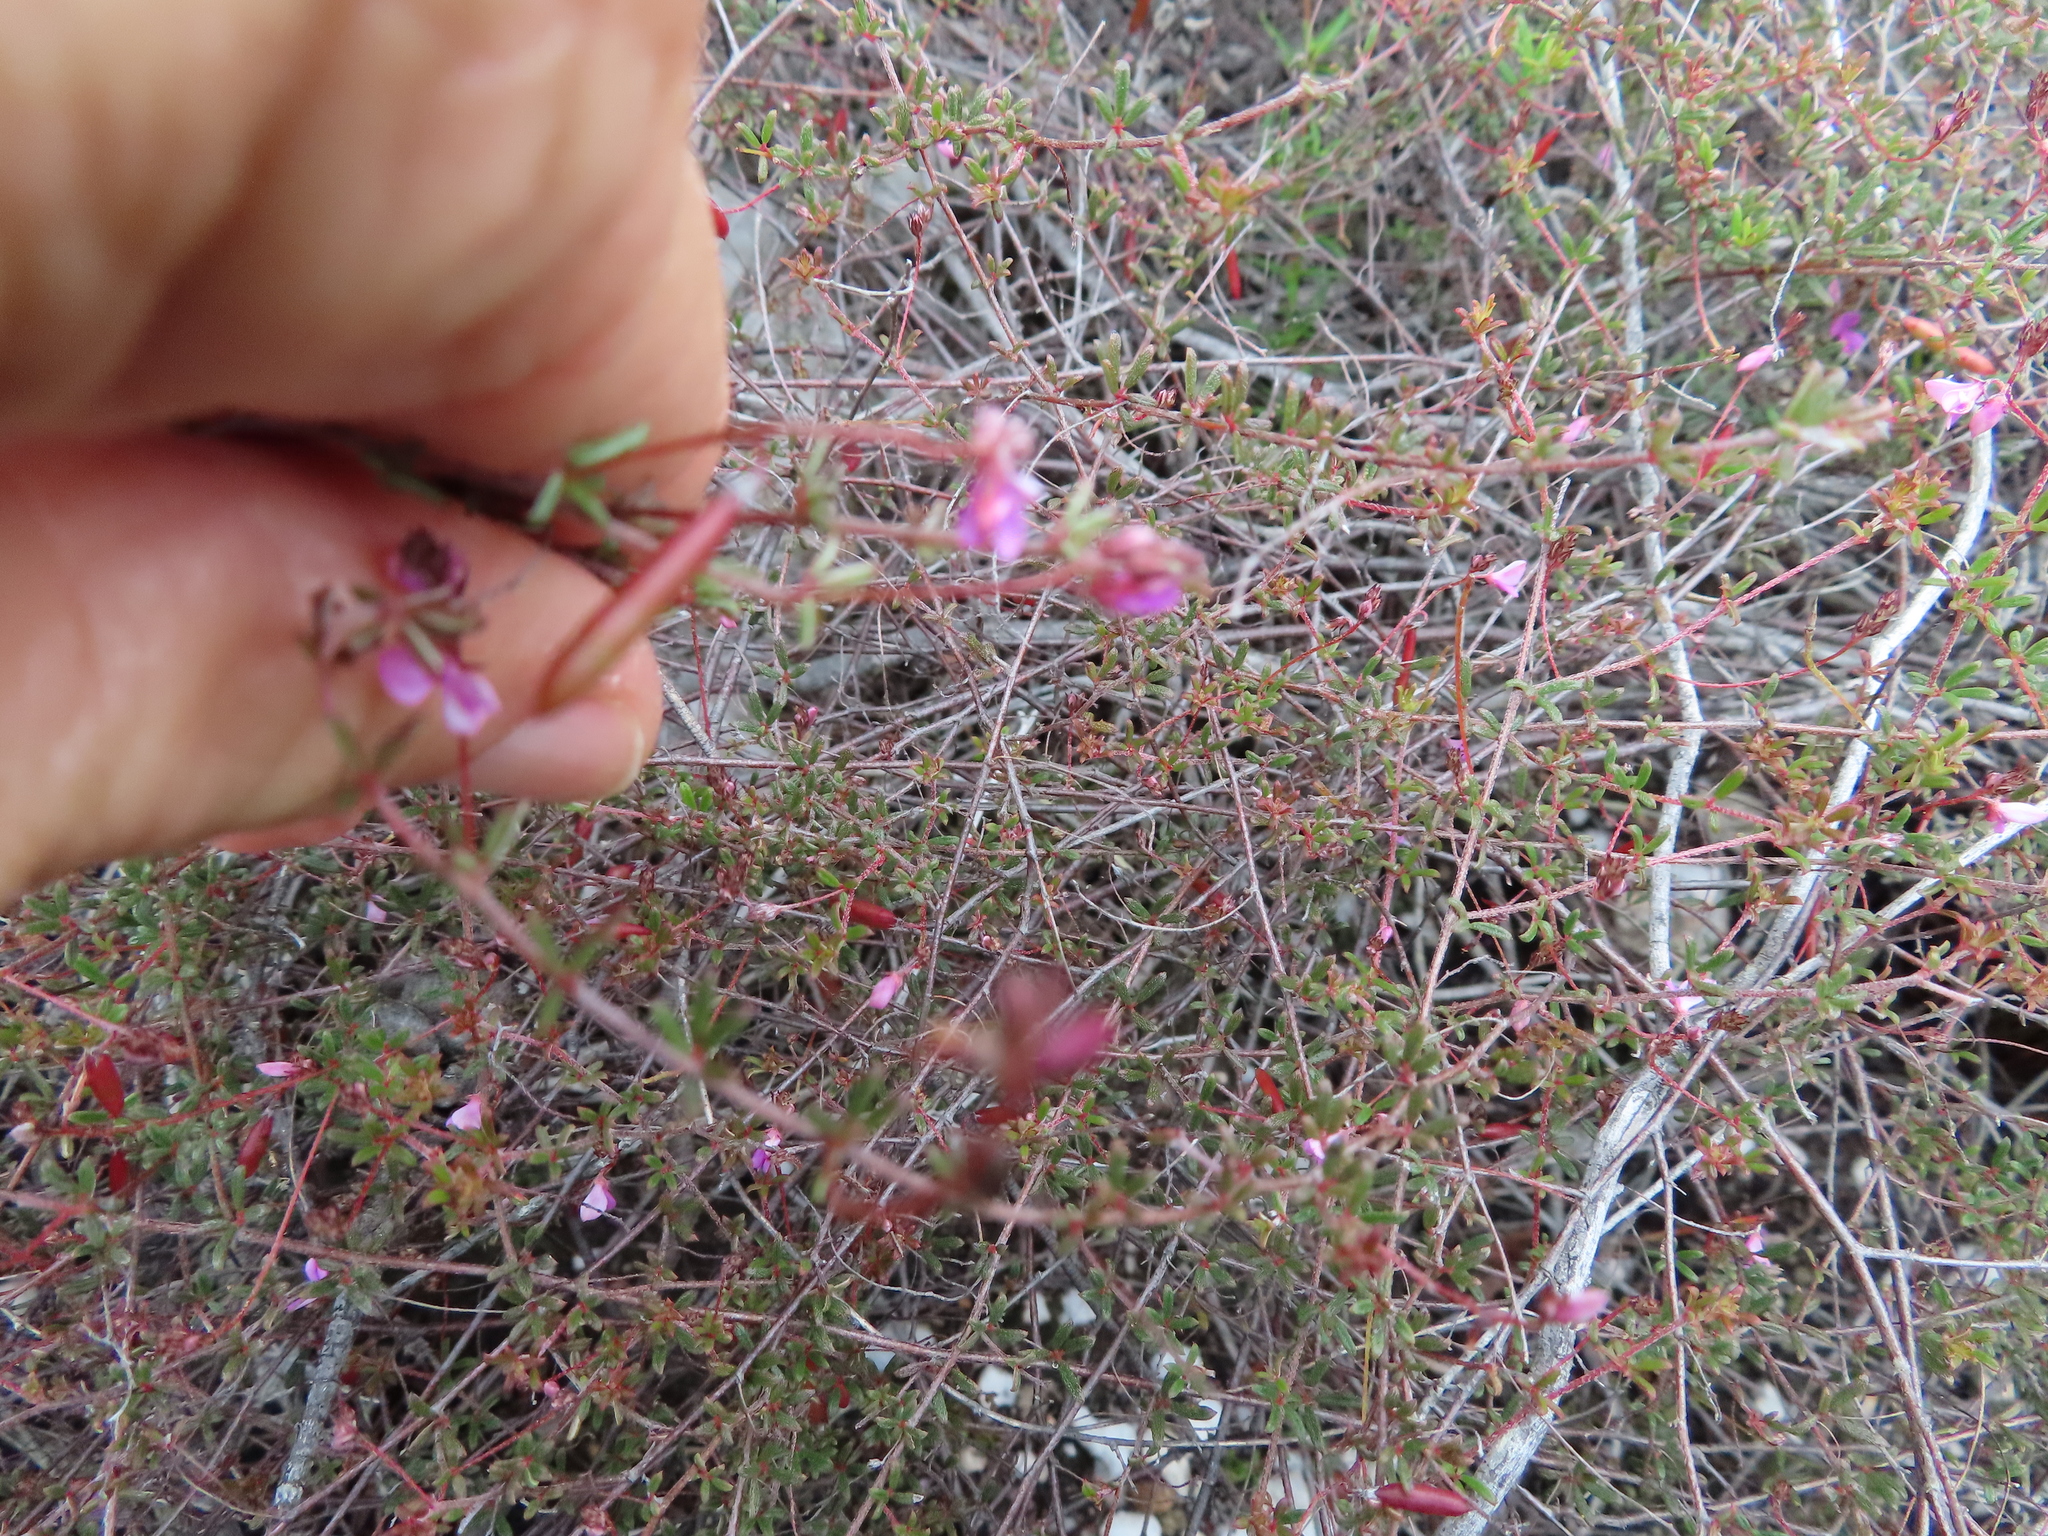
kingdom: Plantae
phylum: Tracheophyta
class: Magnoliopsida
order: Fabales
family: Fabaceae
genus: Indigofera
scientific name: Indigofera mischocarpa
